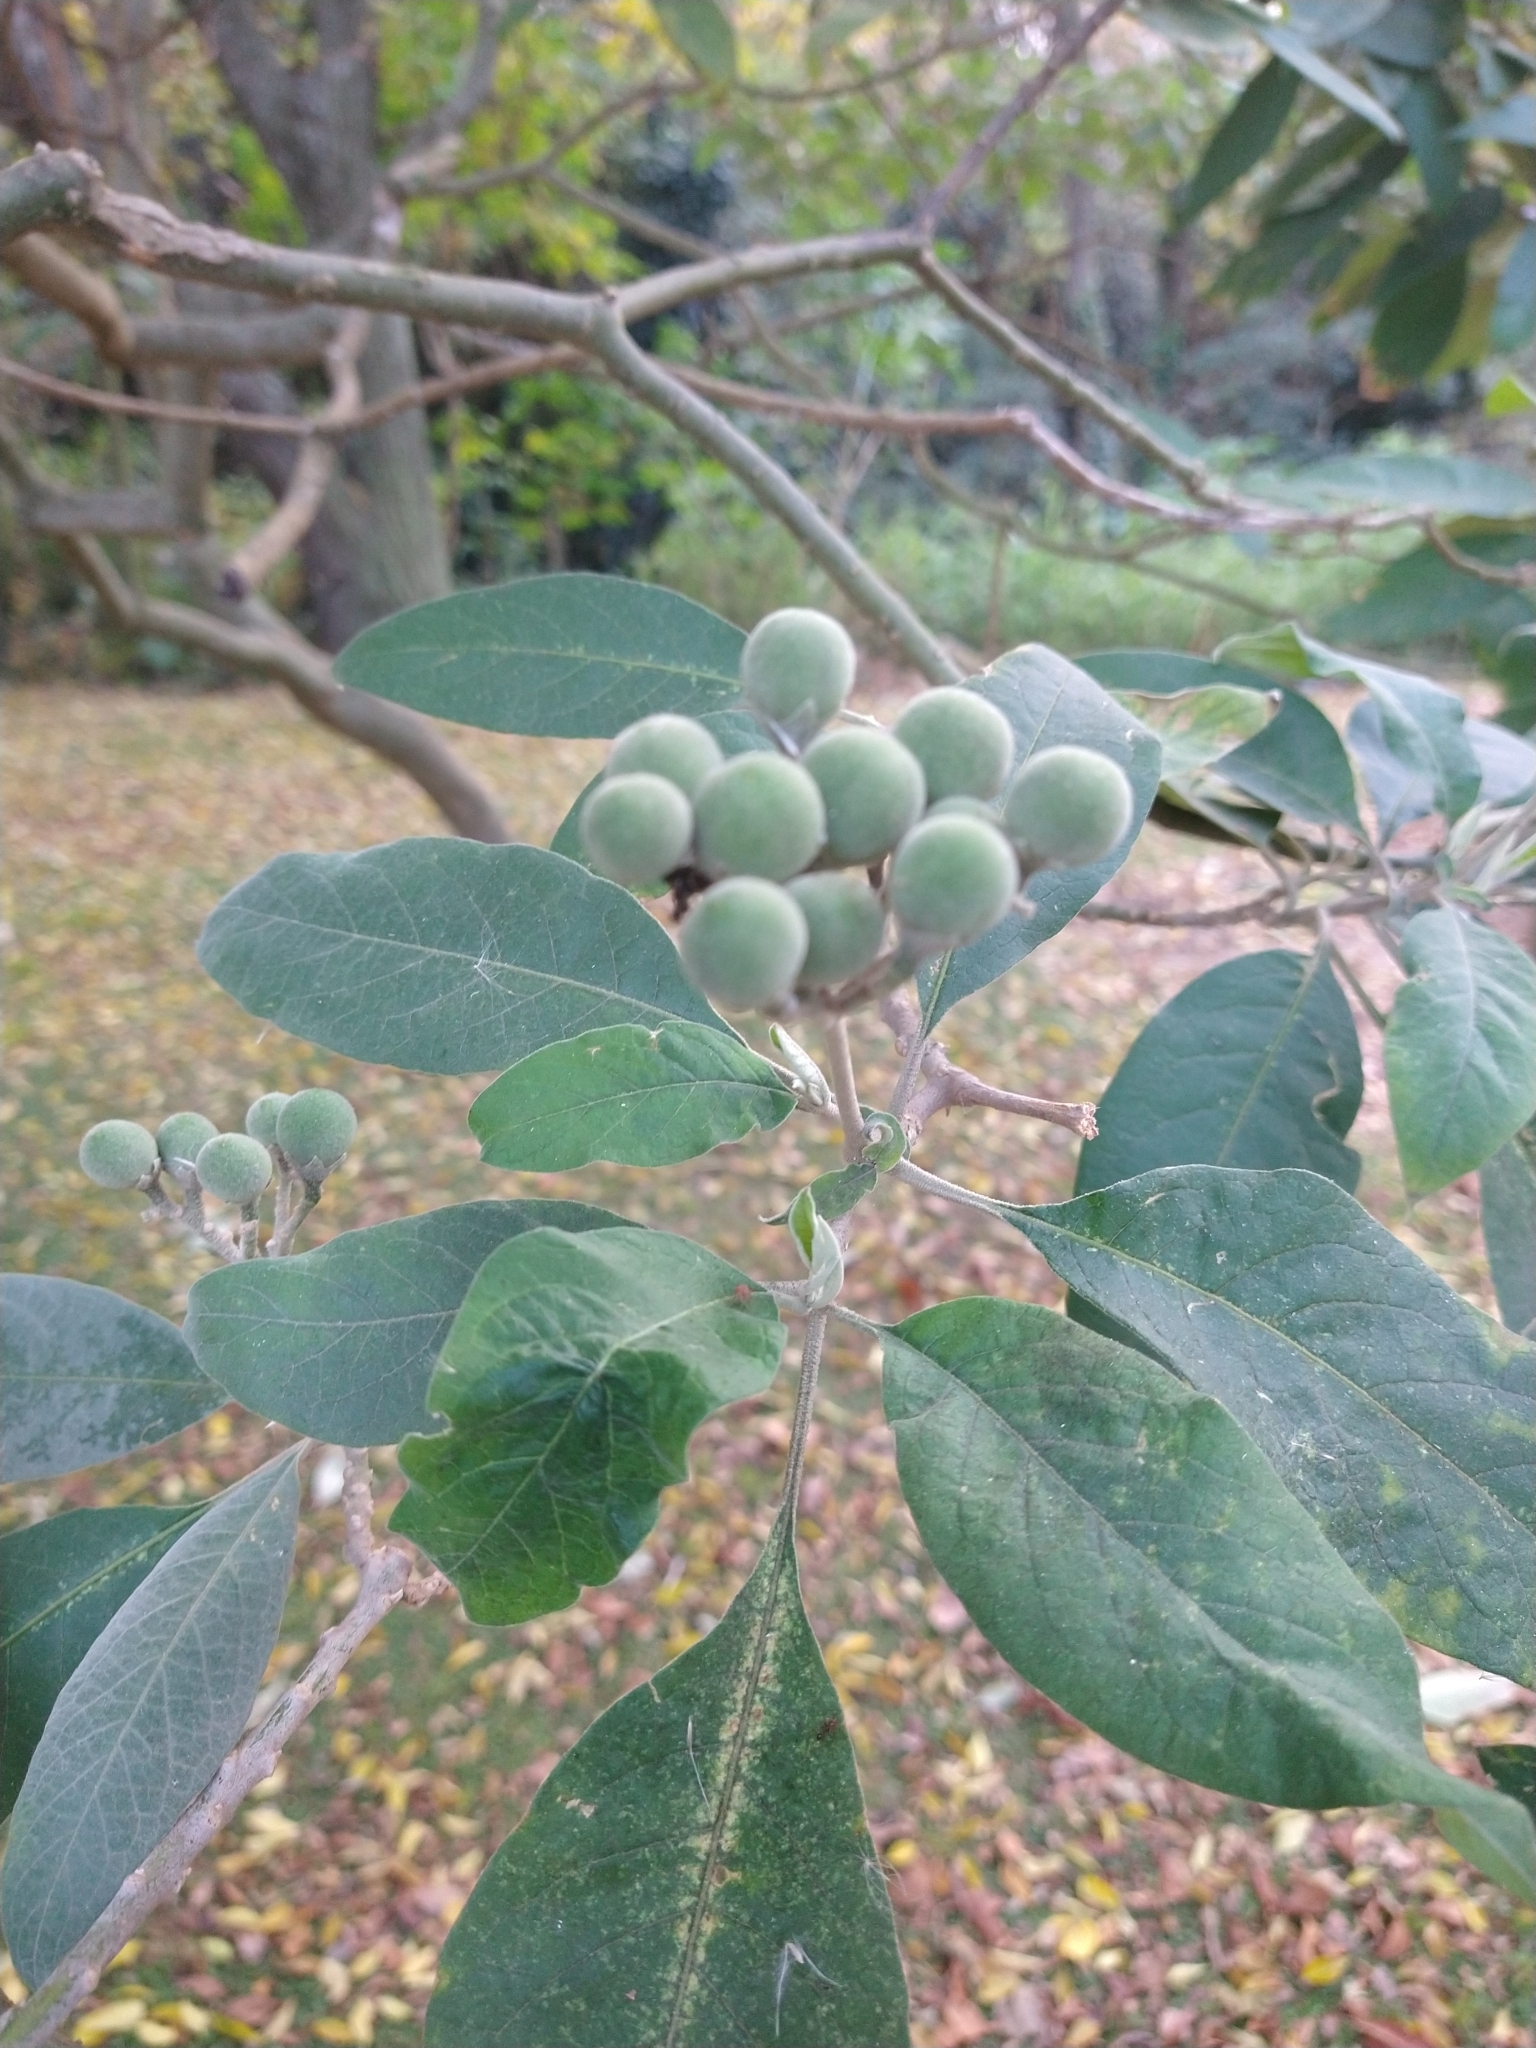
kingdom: Plantae
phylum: Tracheophyta
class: Magnoliopsida
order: Solanales
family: Solanaceae
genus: Solanum
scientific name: Solanum granulosoleprosum
